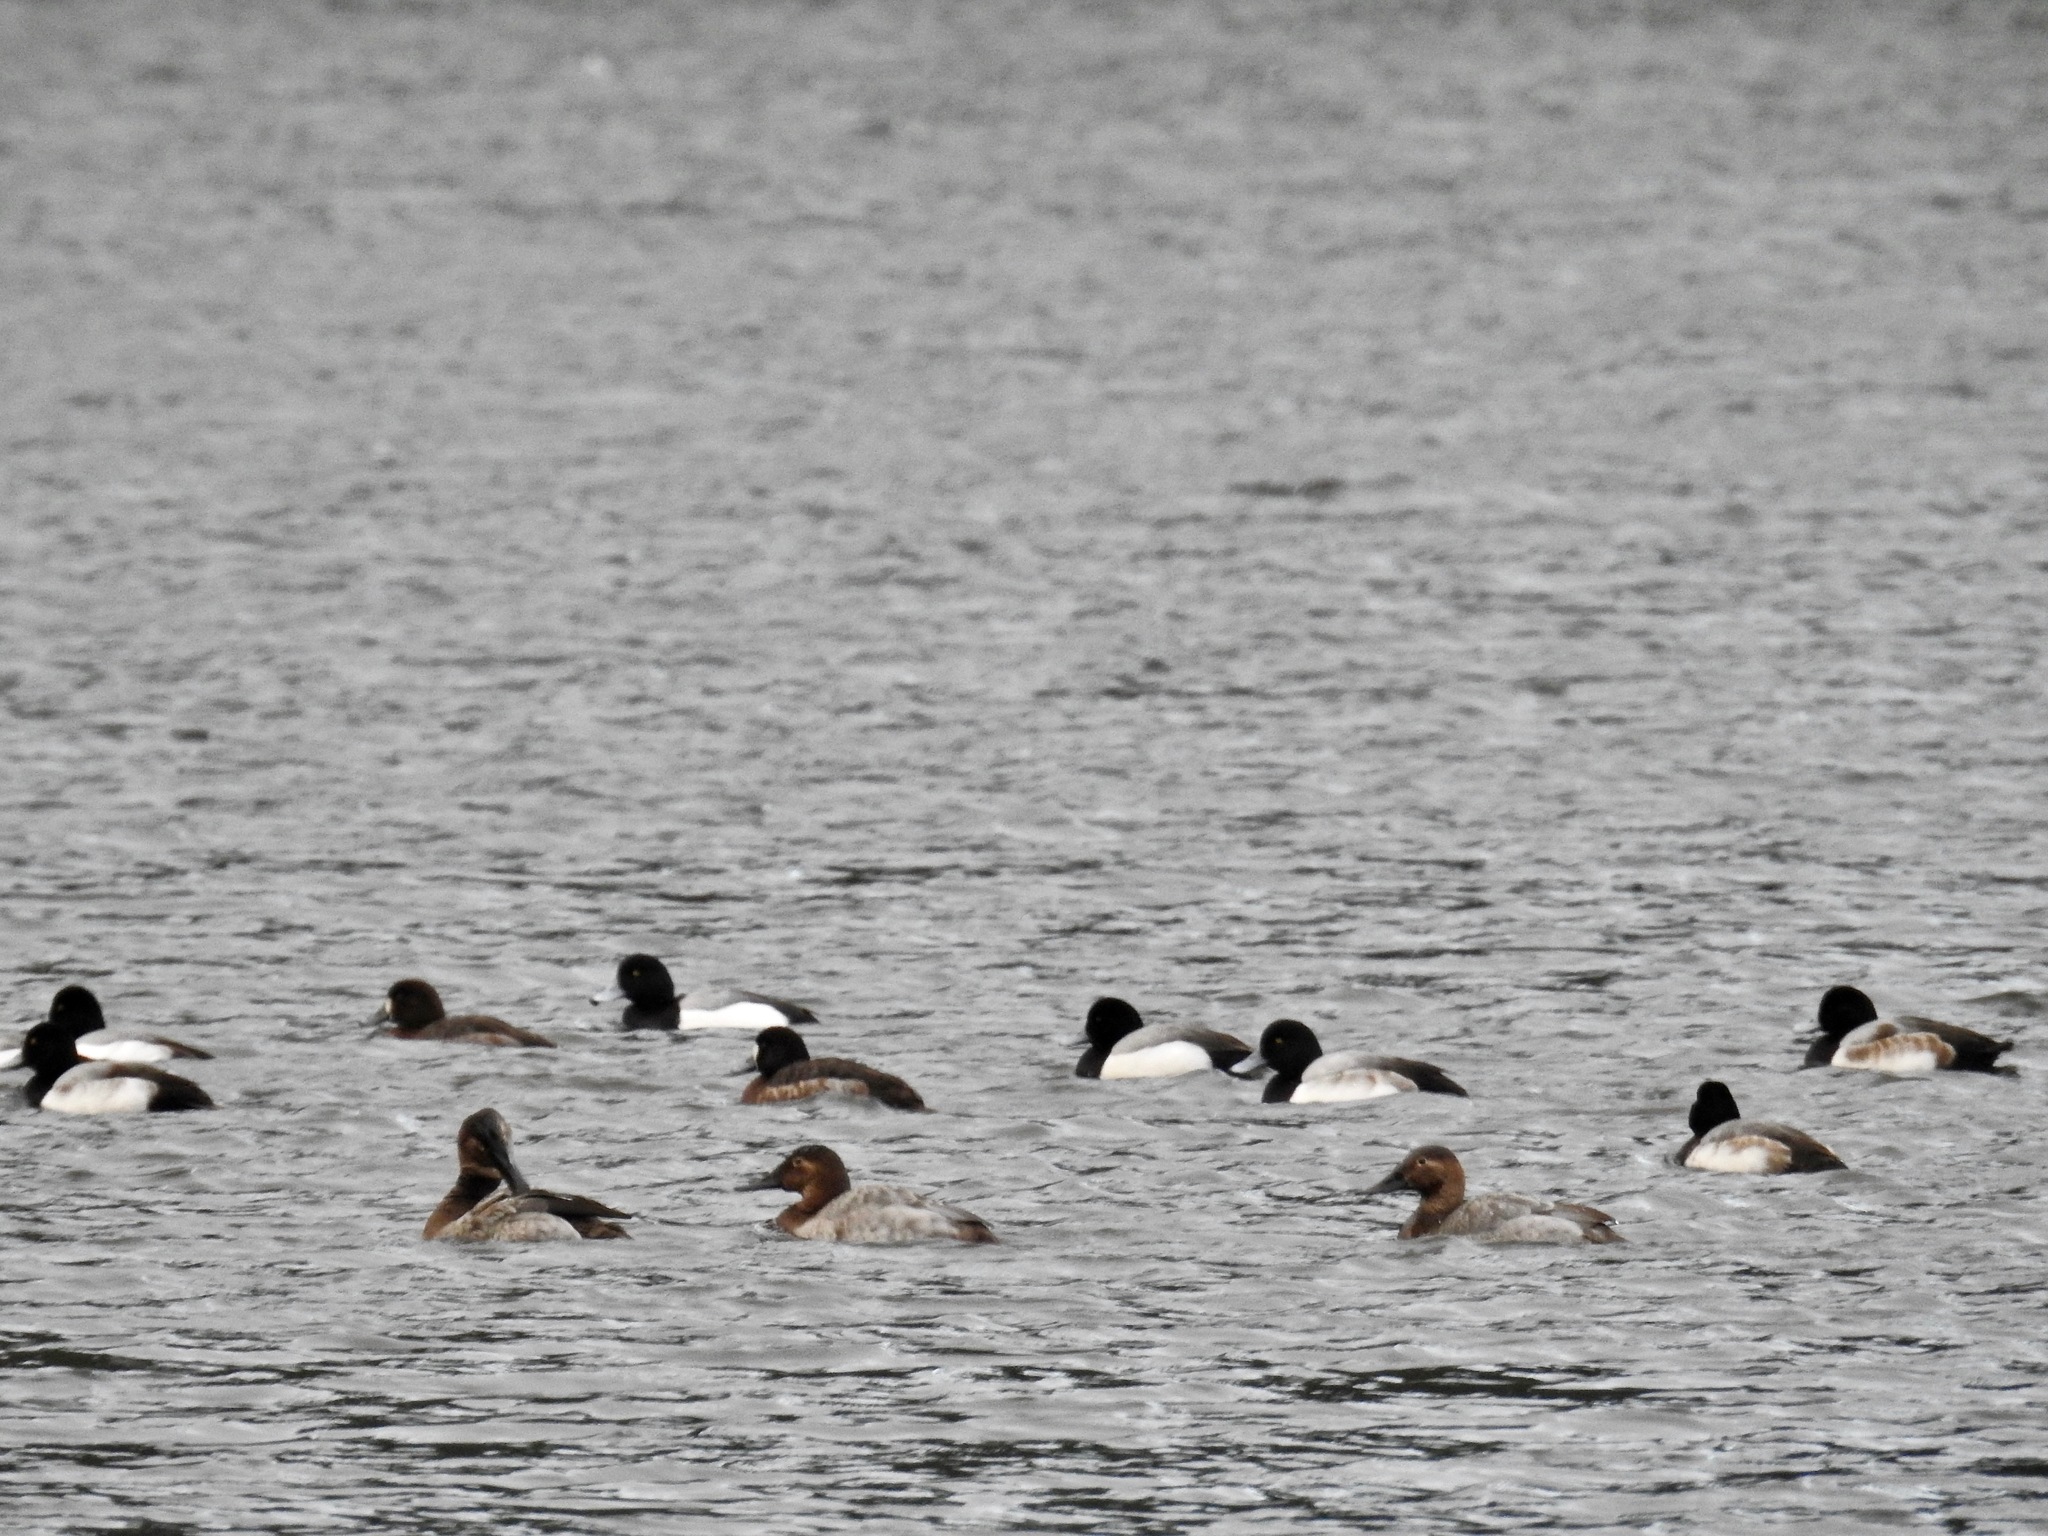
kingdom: Animalia
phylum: Chordata
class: Aves
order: Anseriformes
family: Anatidae
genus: Aythya
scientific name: Aythya valisineria
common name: Canvasback
